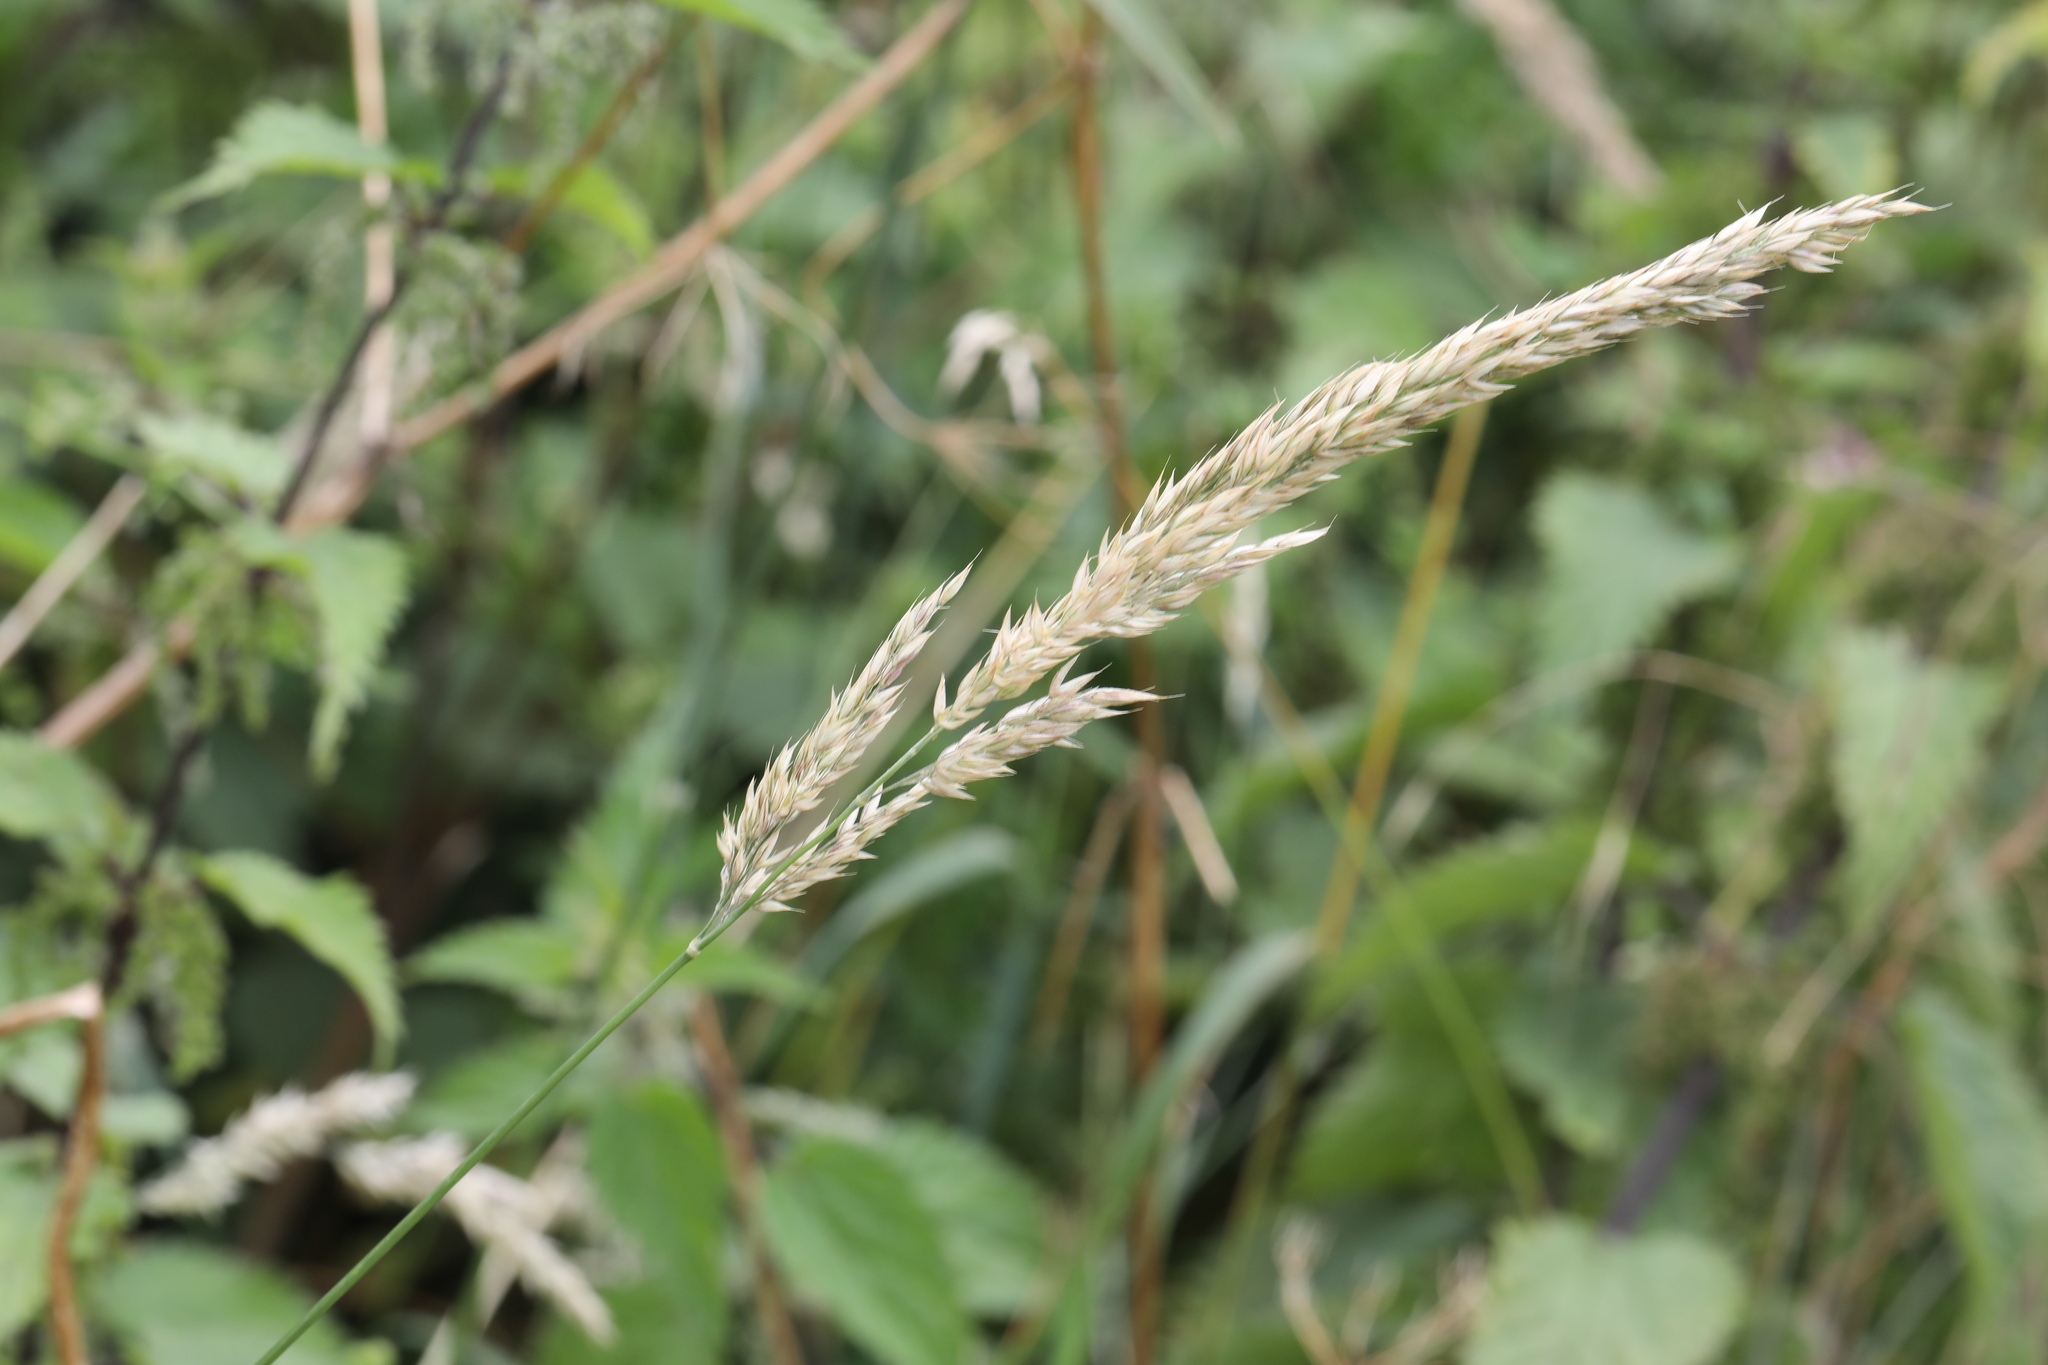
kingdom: Plantae
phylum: Tracheophyta
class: Liliopsida
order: Poales
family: Poaceae
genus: Holcus
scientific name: Holcus mollis
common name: Creeping velvetgrass
